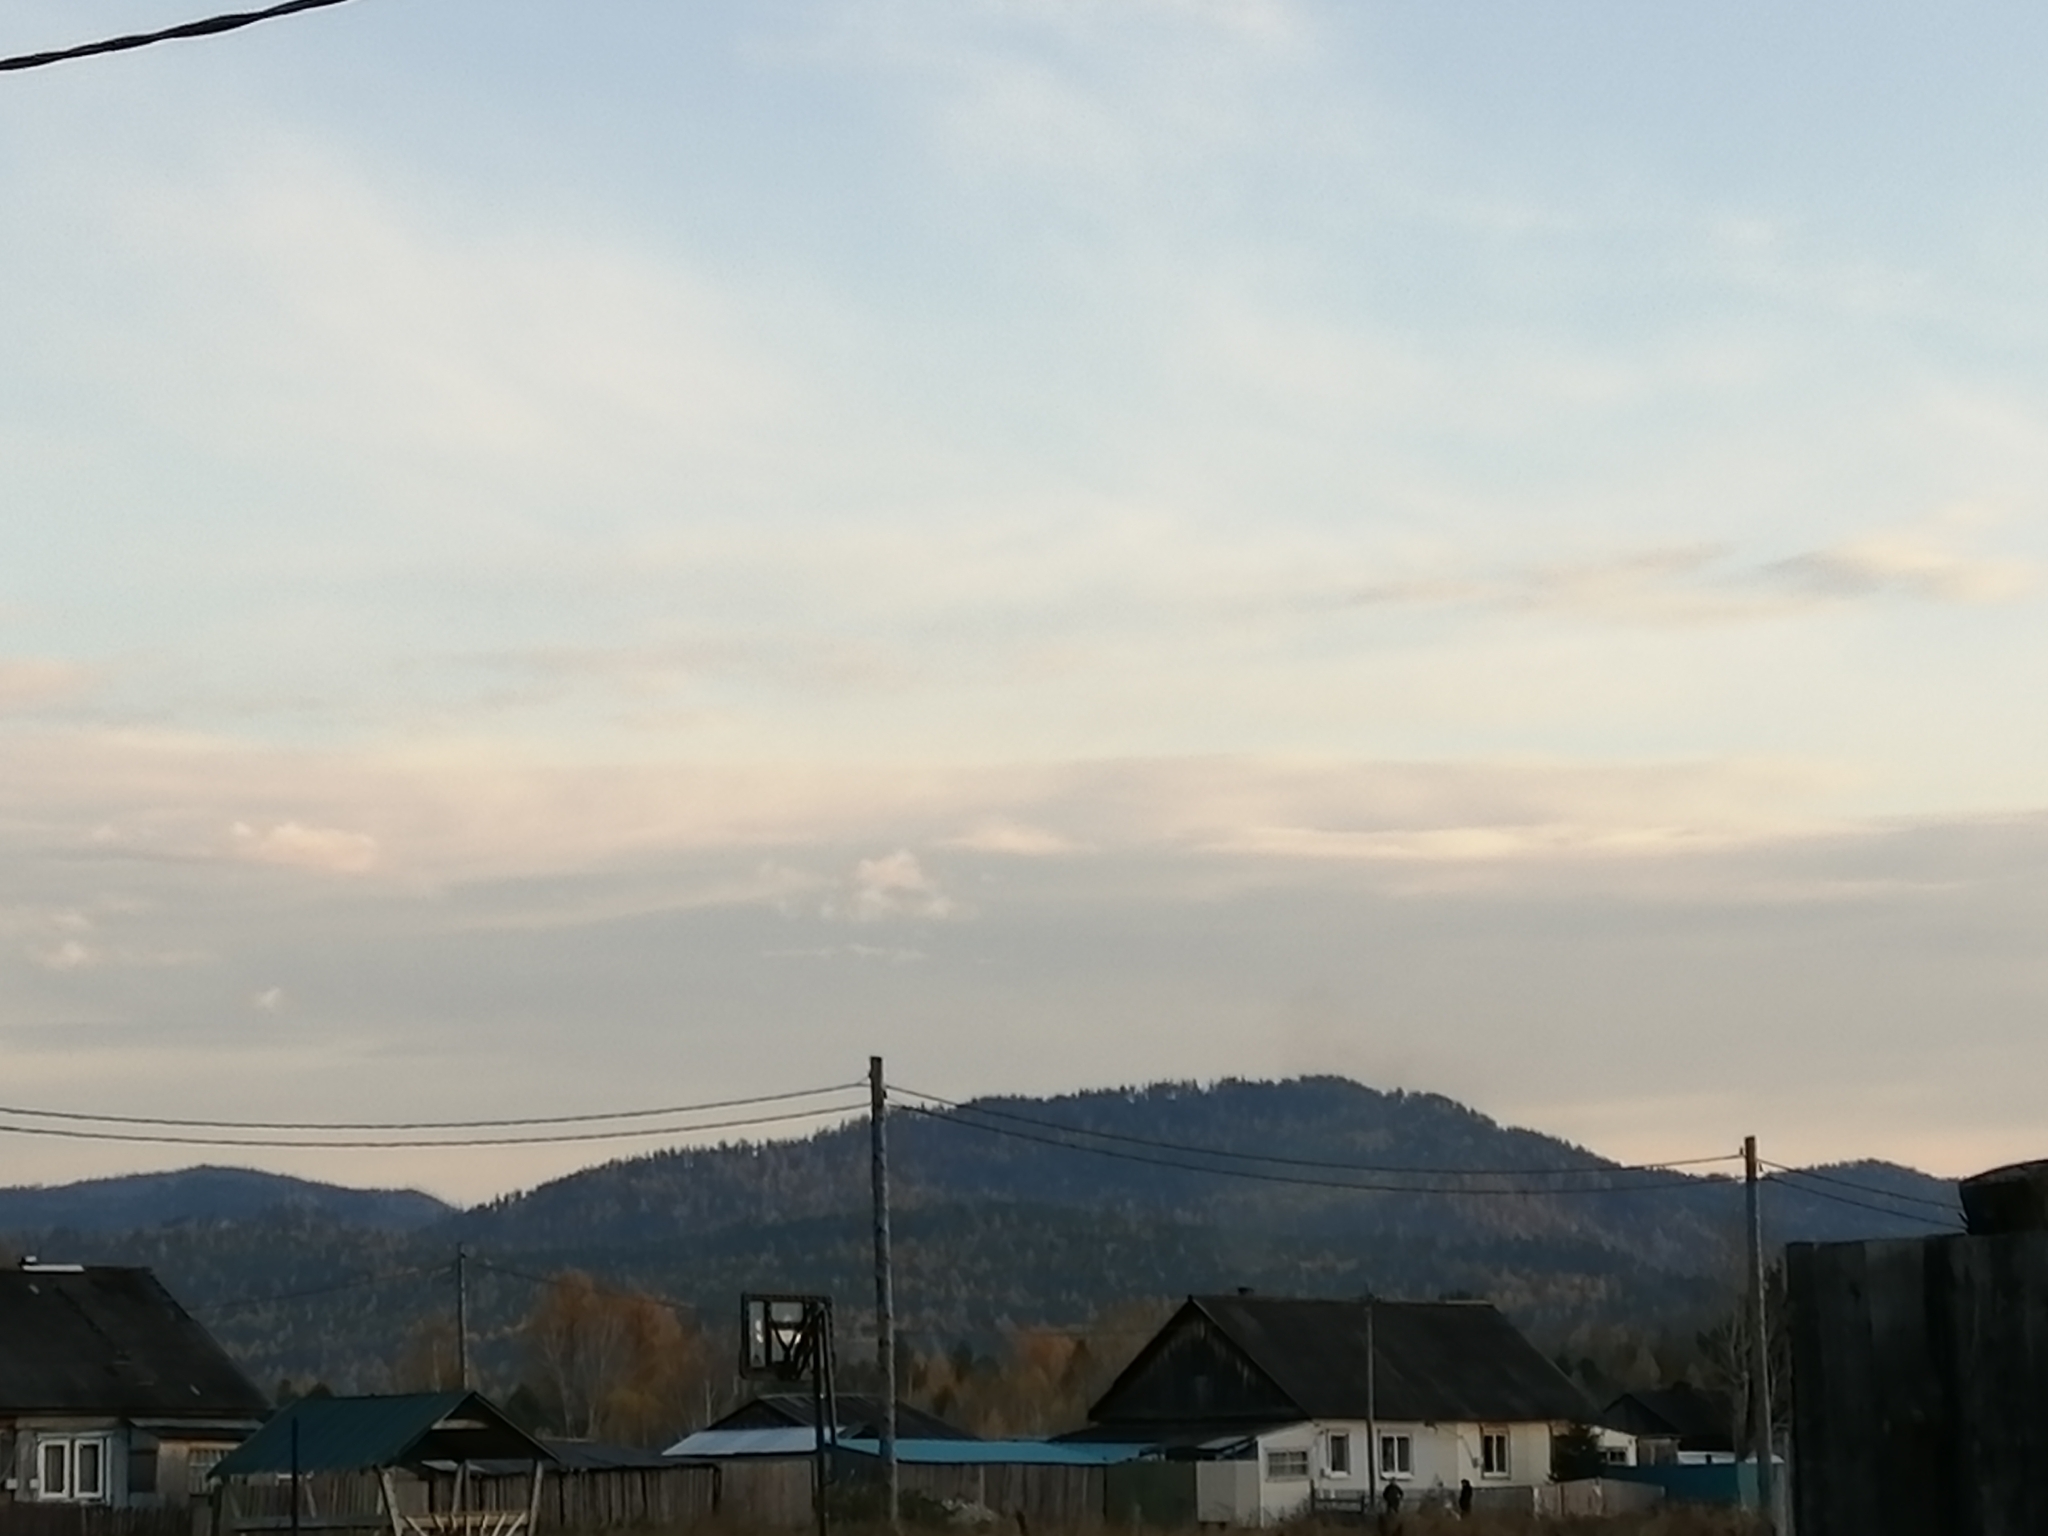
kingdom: Plantae
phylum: Tracheophyta
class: Pinopsida
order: Pinales
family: Pinaceae
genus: Larix
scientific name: Larix sibirica
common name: Siberian larch
